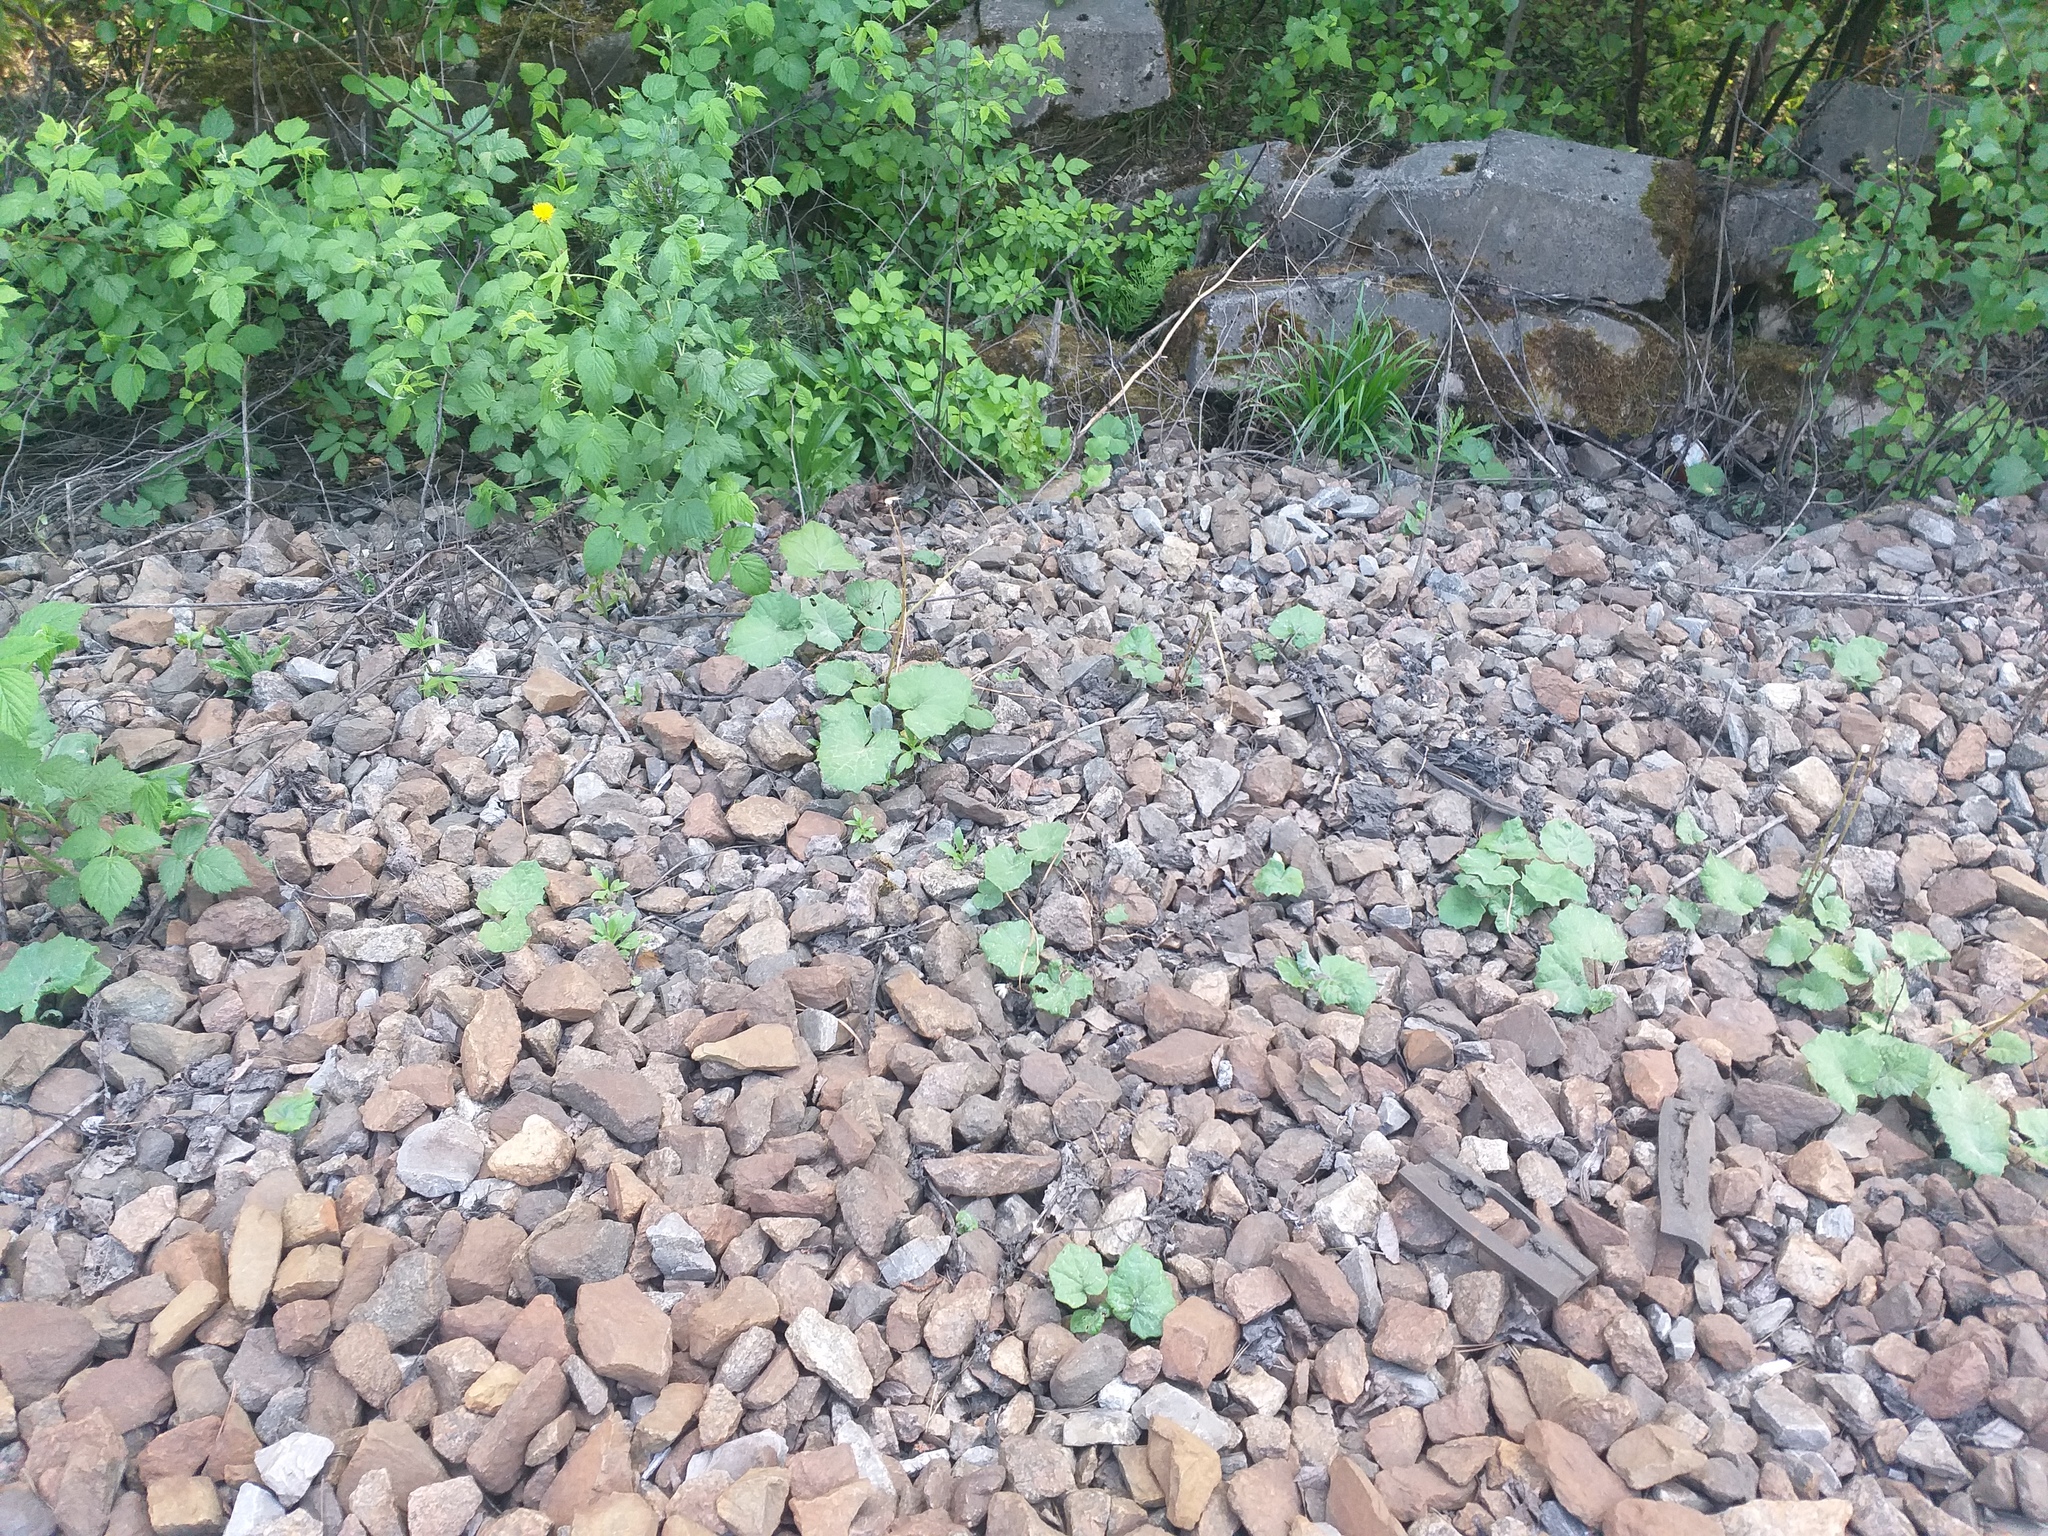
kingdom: Plantae
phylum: Tracheophyta
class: Magnoliopsida
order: Asterales
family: Asteraceae
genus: Tussilago
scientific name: Tussilago farfara
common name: Coltsfoot
